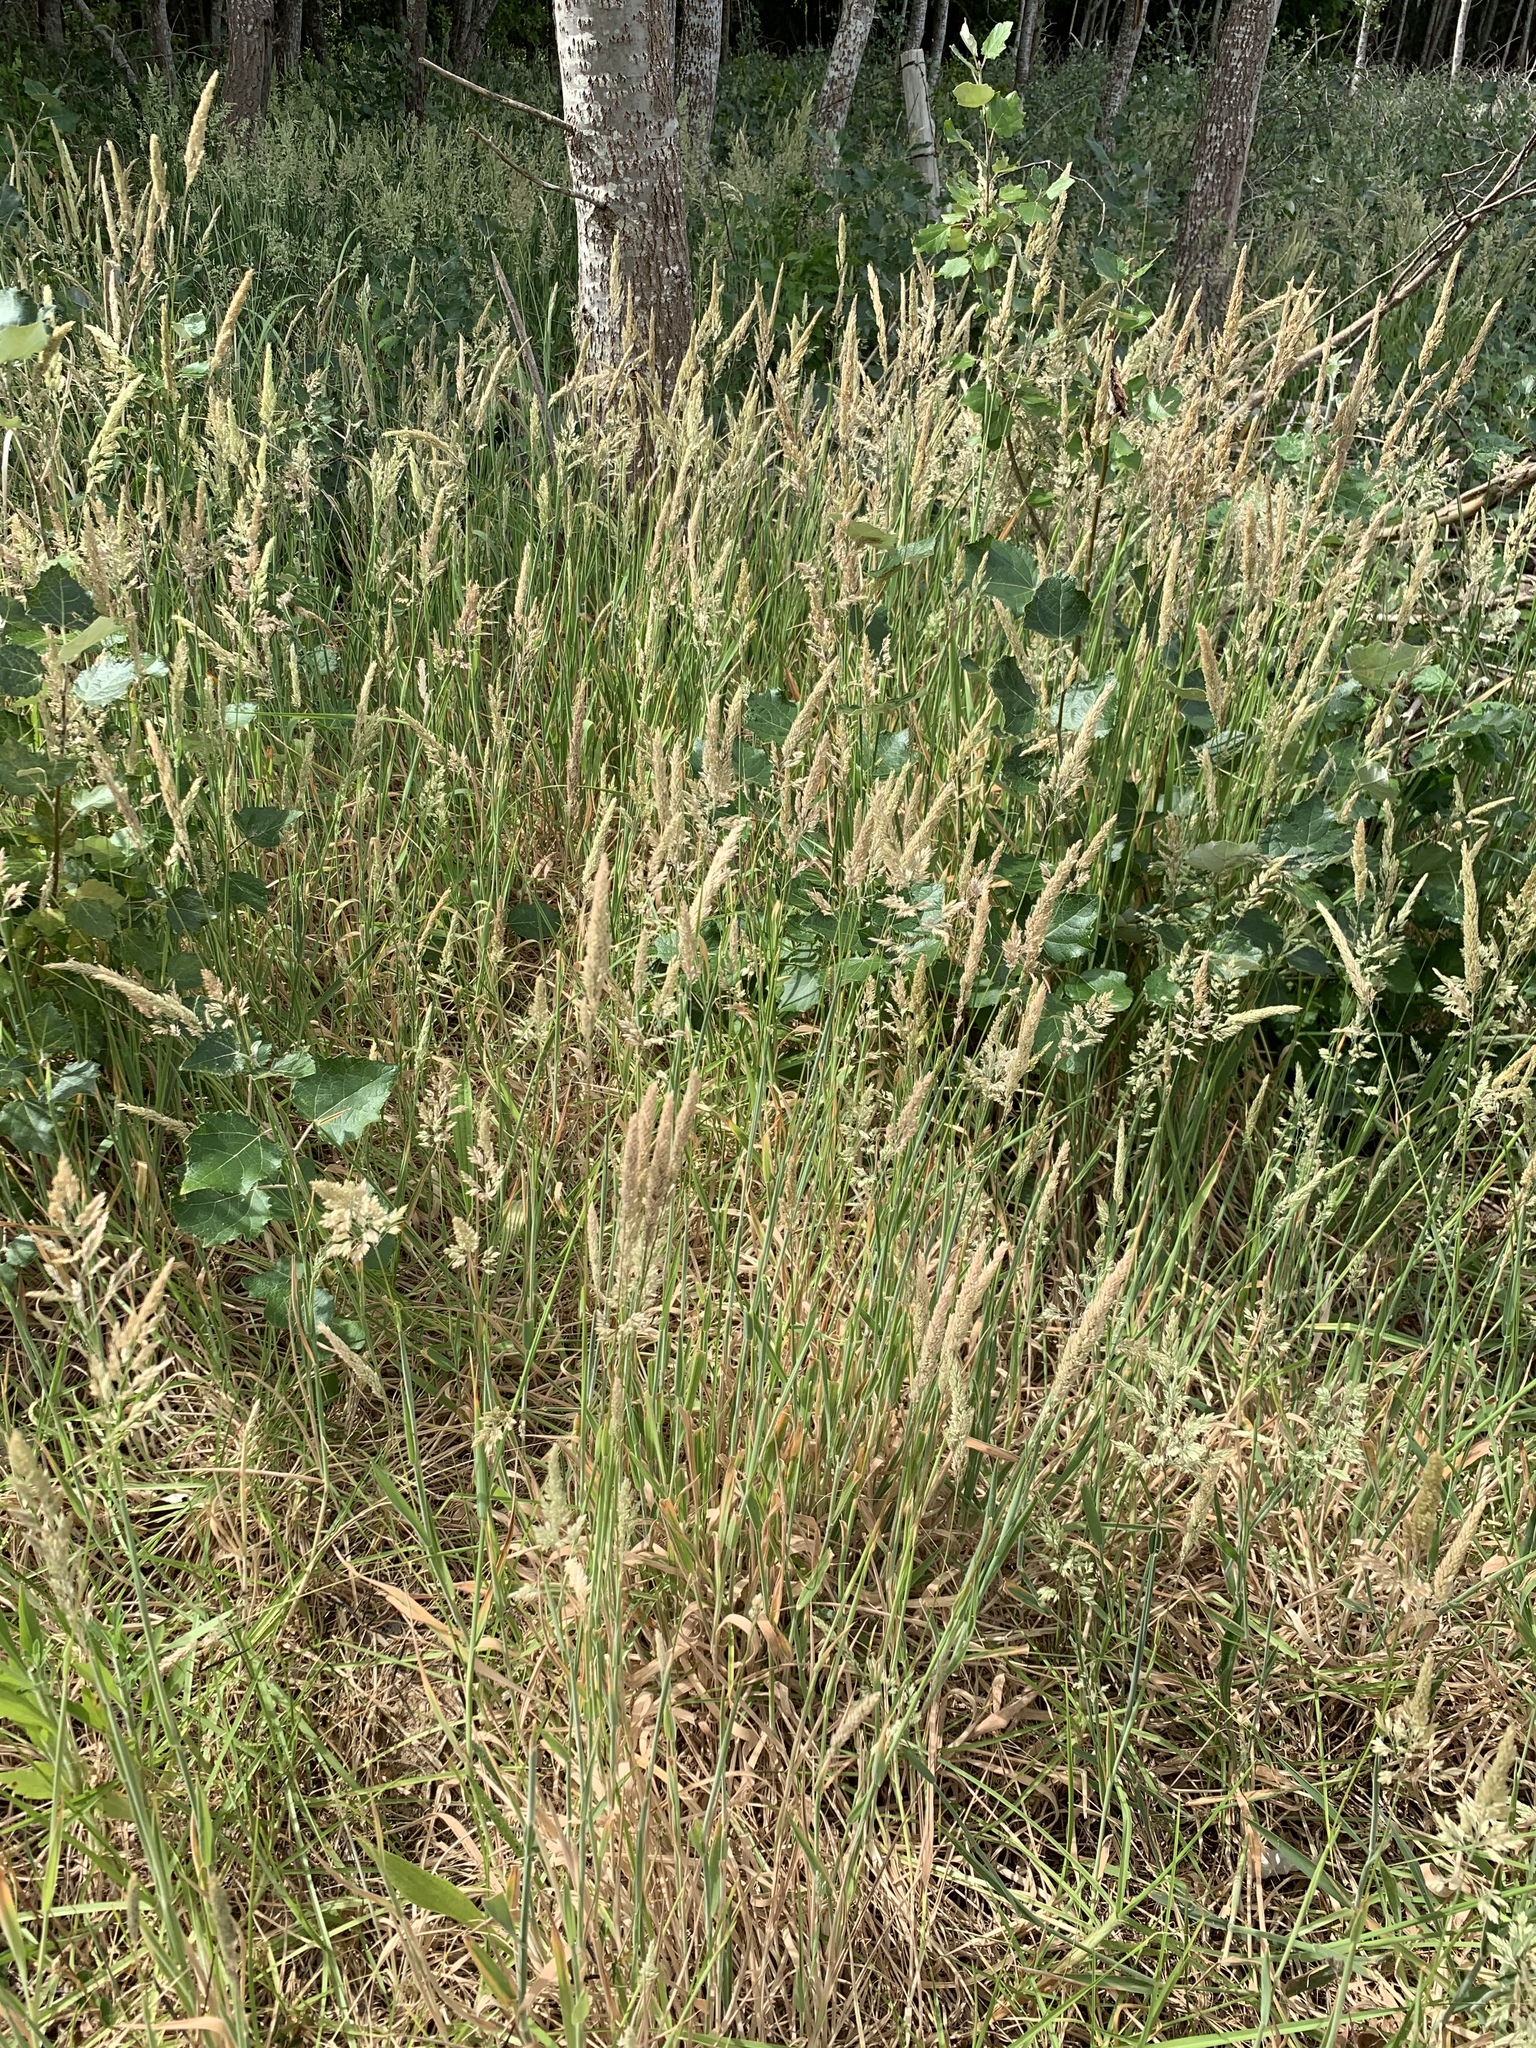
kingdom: Plantae
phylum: Tracheophyta
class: Liliopsida
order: Poales
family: Poaceae
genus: Holcus
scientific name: Holcus lanatus
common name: Yorkshire-fog
